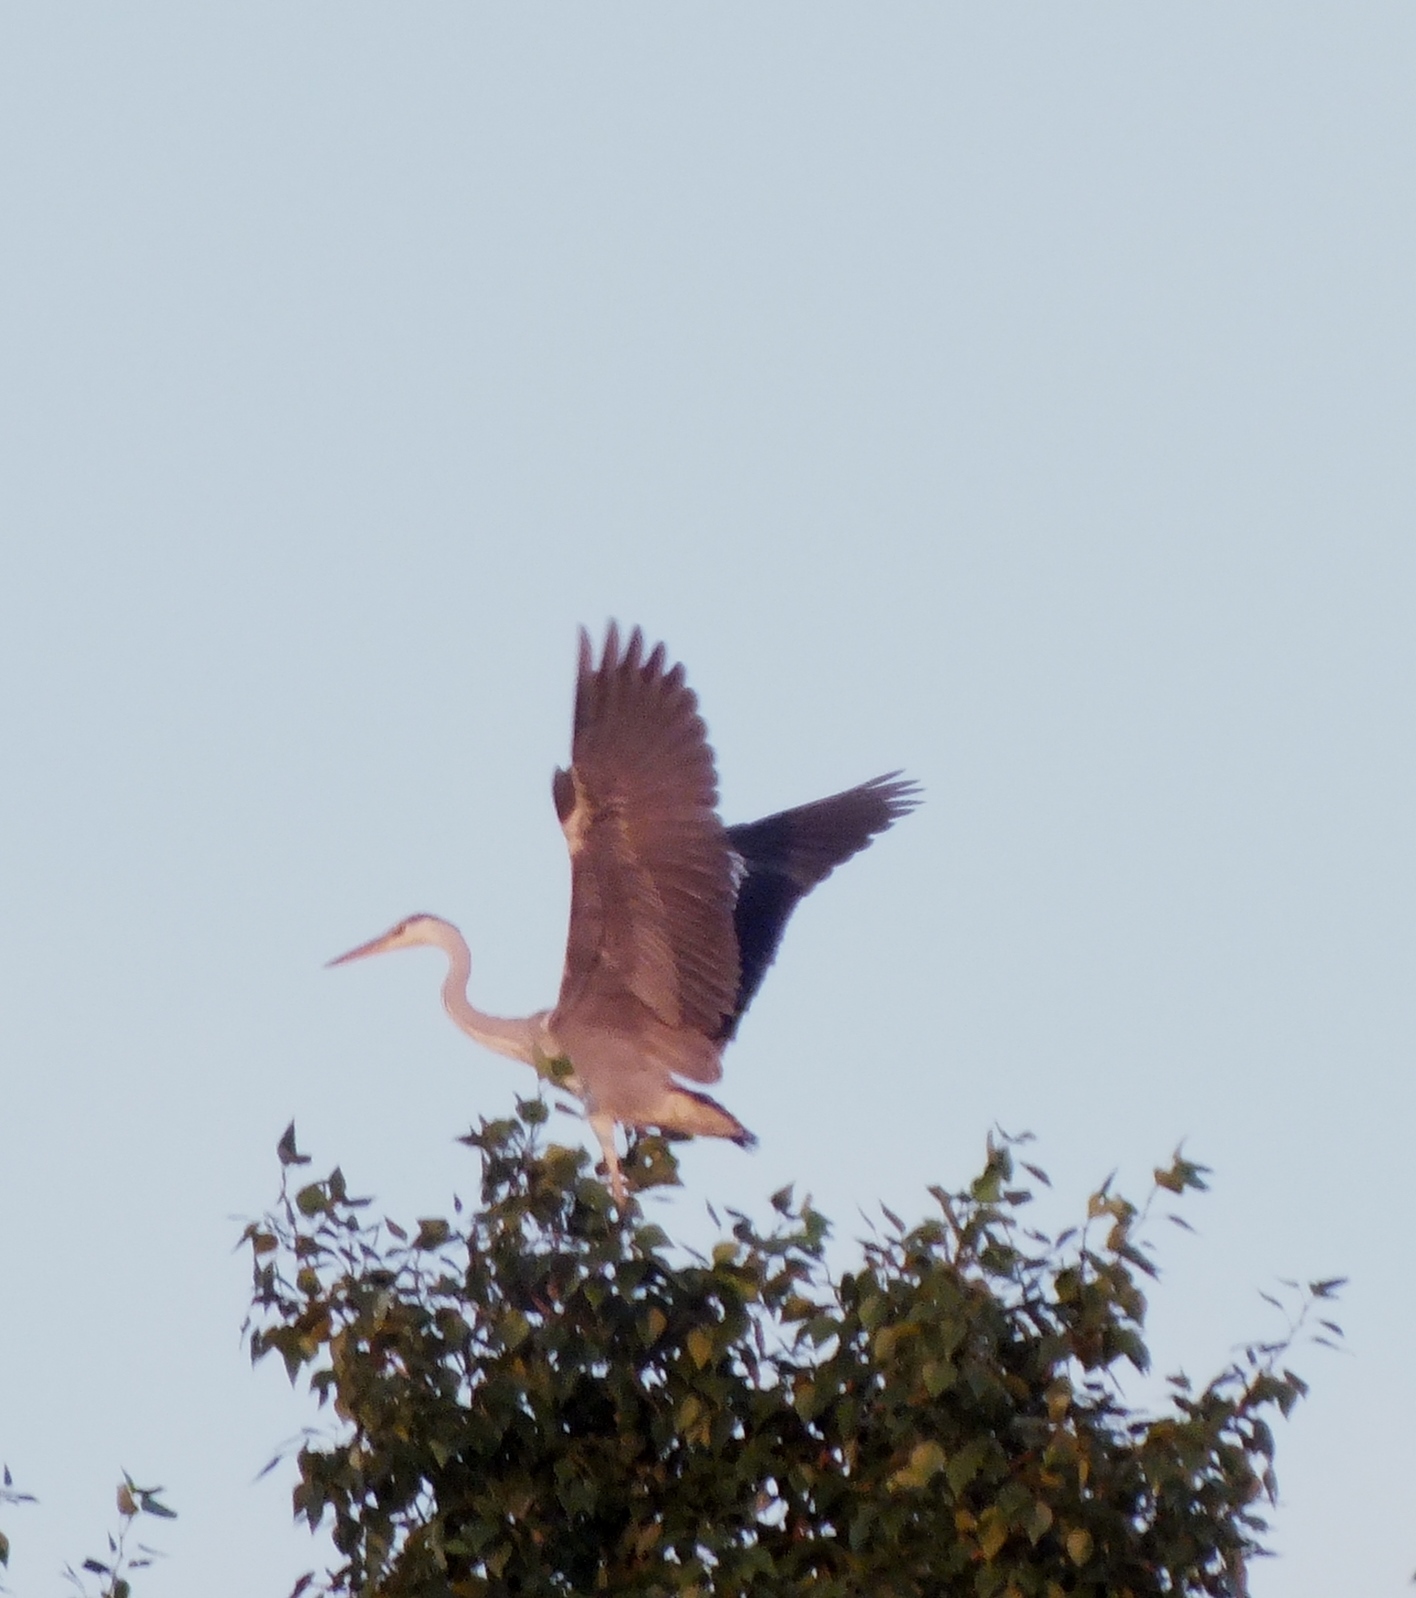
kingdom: Animalia
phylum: Chordata
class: Aves
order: Pelecaniformes
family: Ardeidae
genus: Ardea
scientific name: Ardea cinerea
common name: Grey heron
